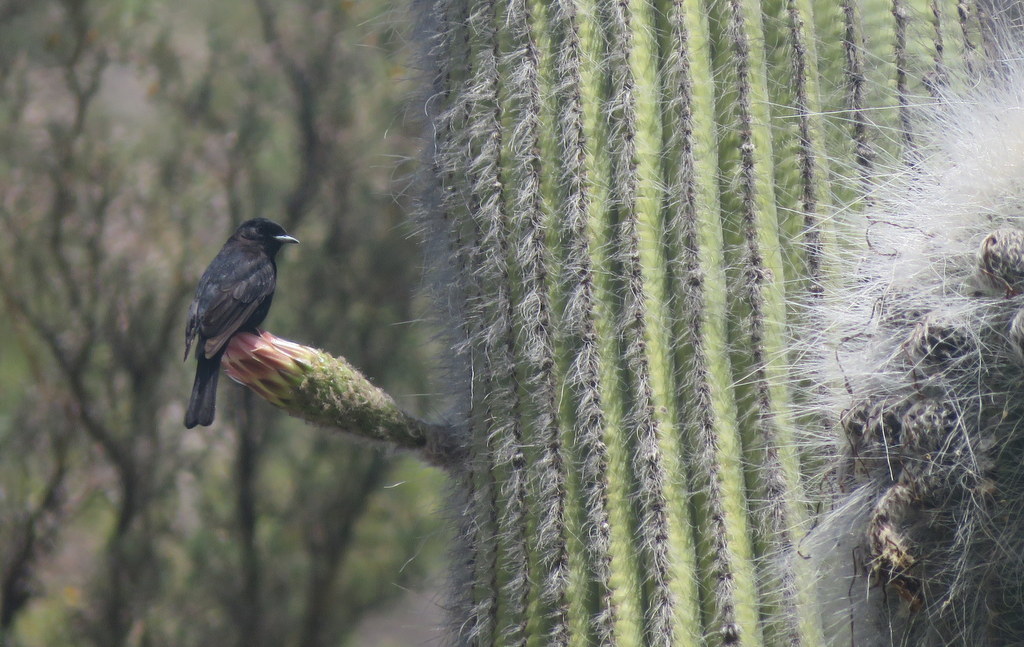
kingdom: Animalia
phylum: Chordata
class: Aves
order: Passeriformes
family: Tyrannidae
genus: Knipolegus
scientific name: Knipolegus aterrimus
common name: White-winged black tyrant
